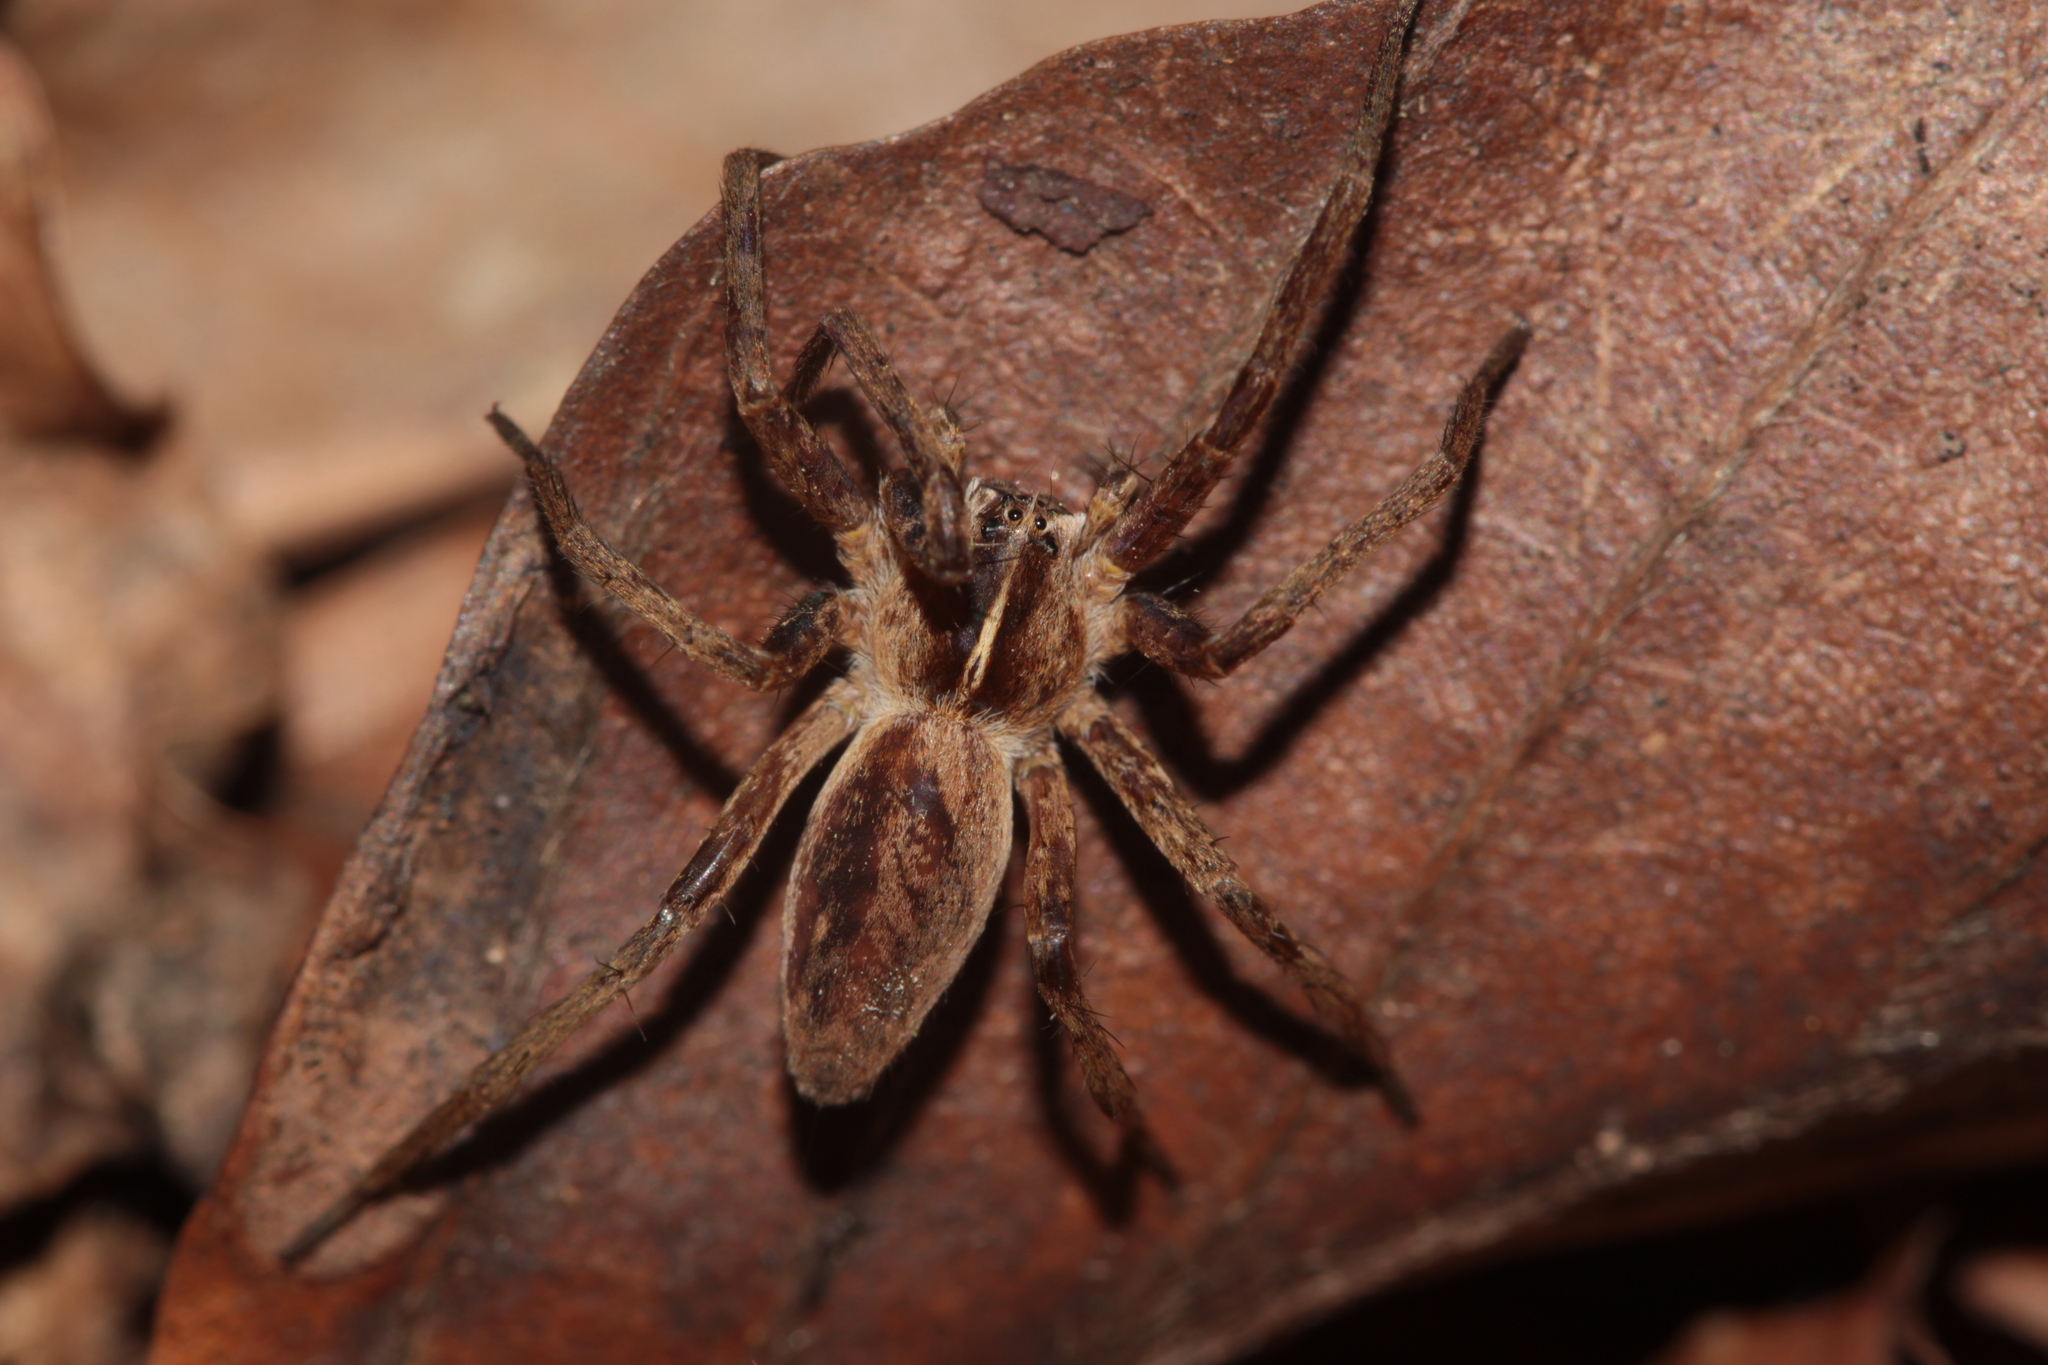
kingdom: Animalia
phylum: Arthropoda
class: Arachnida
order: Araneae
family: Pisauridae
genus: Pisaura
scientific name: Pisaura mirabilis
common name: Tent spider
